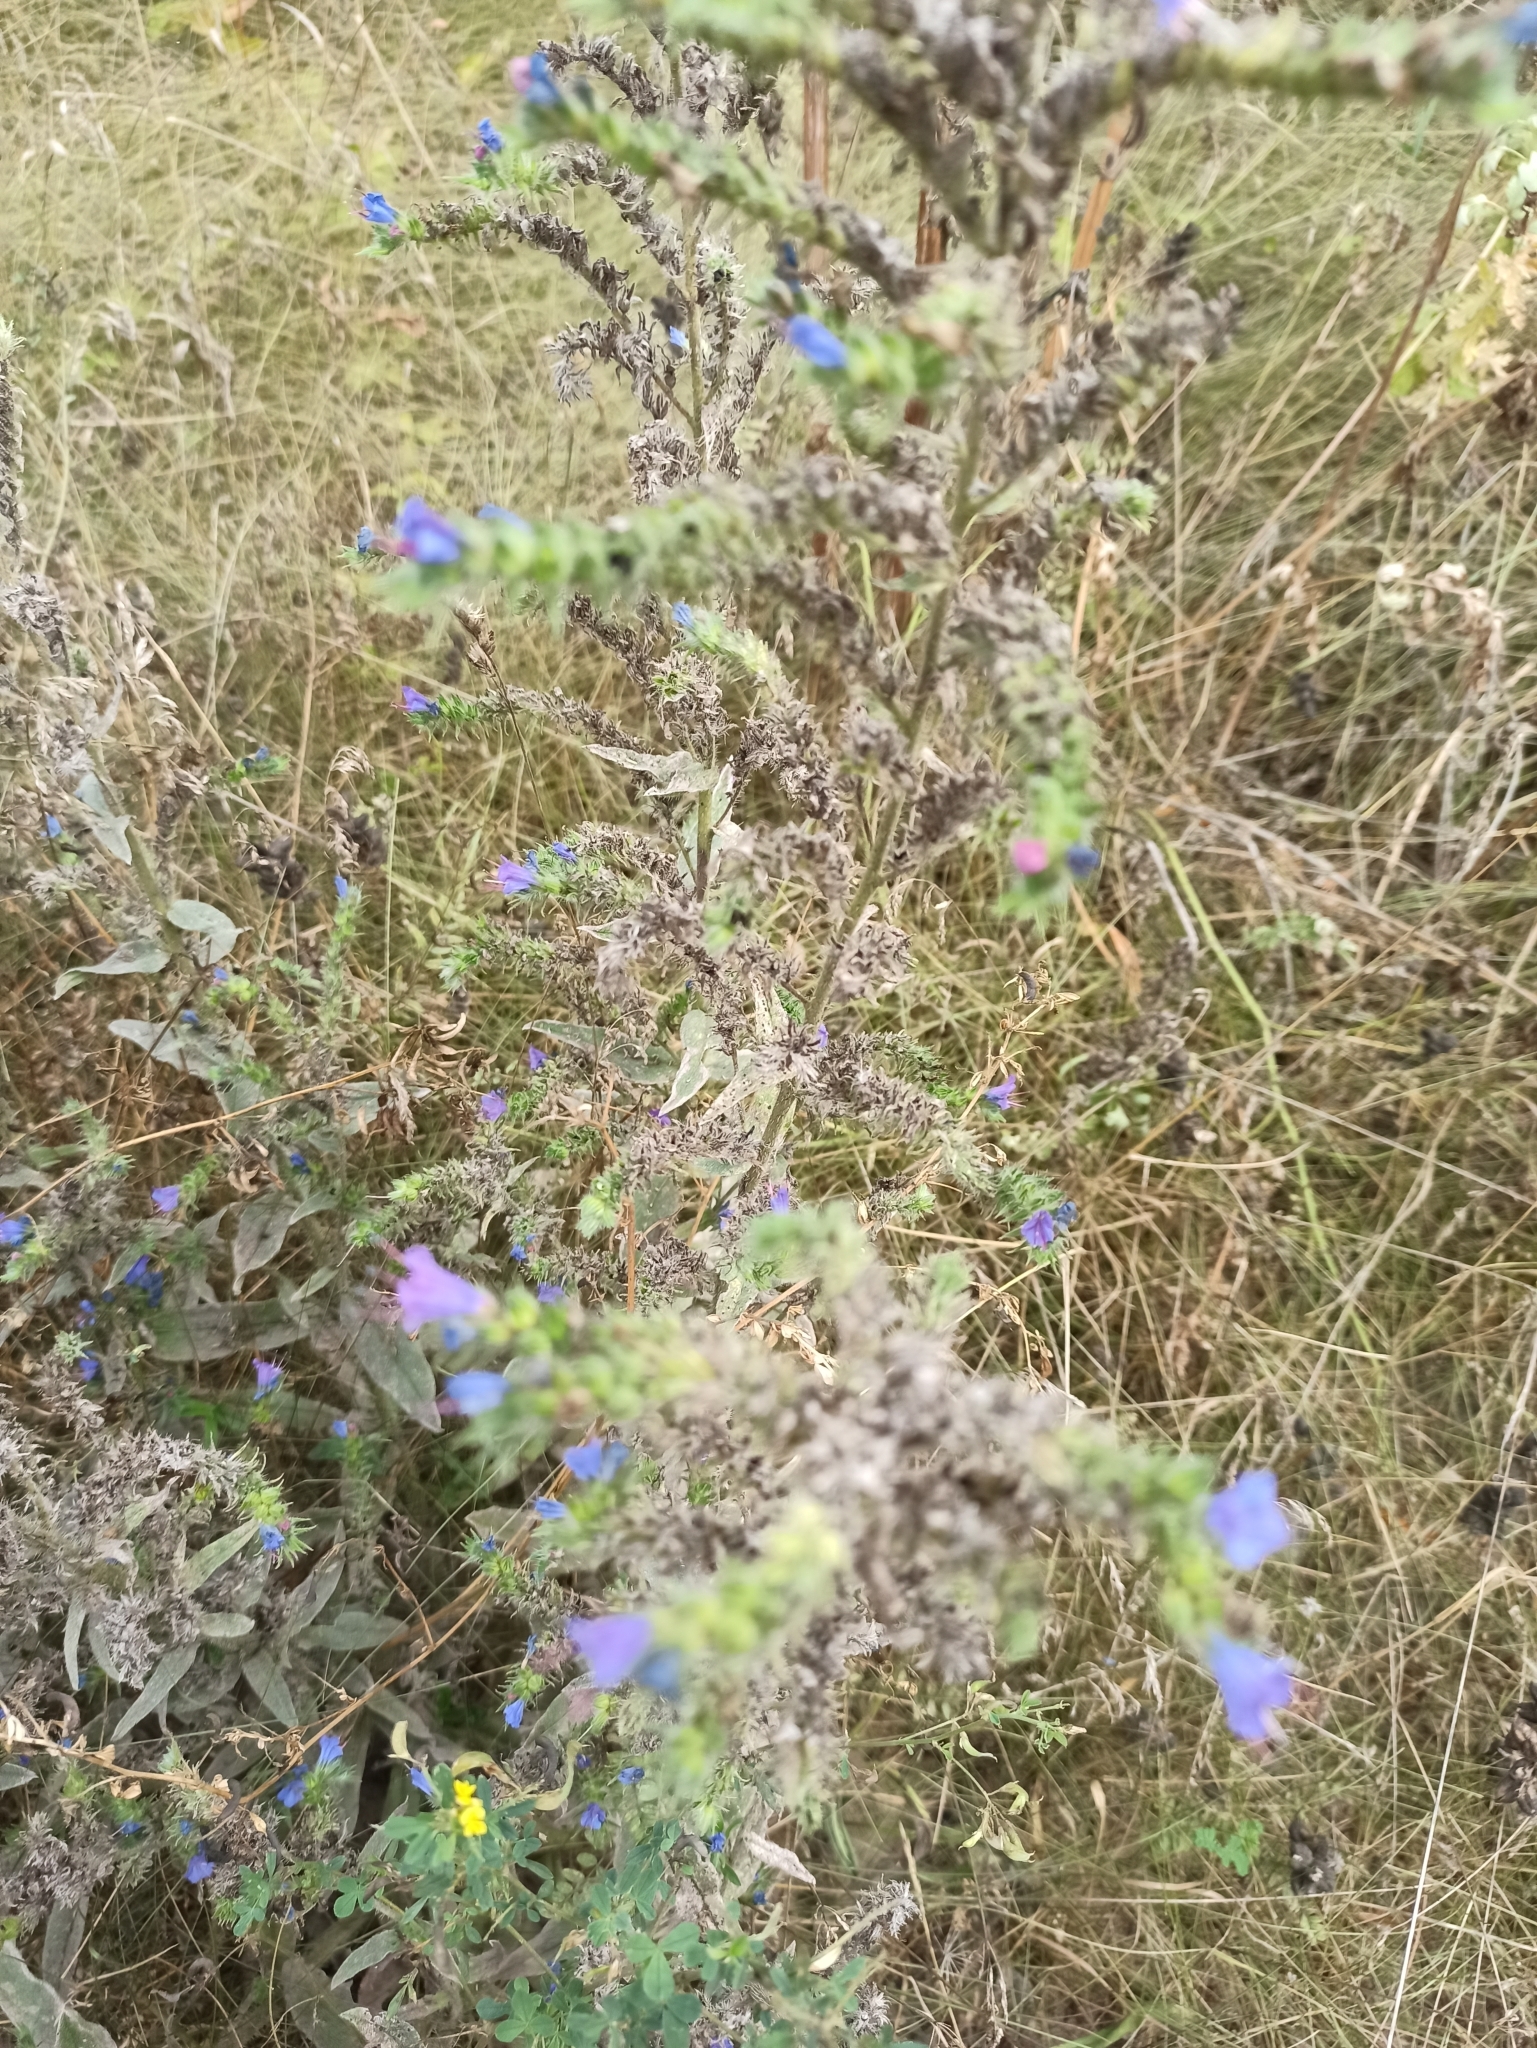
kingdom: Plantae
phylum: Tracheophyta
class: Magnoliopsida
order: Boraginales
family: Boraginaceae
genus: Echium
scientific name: Echium vulgare
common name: Common viper's bugloss
